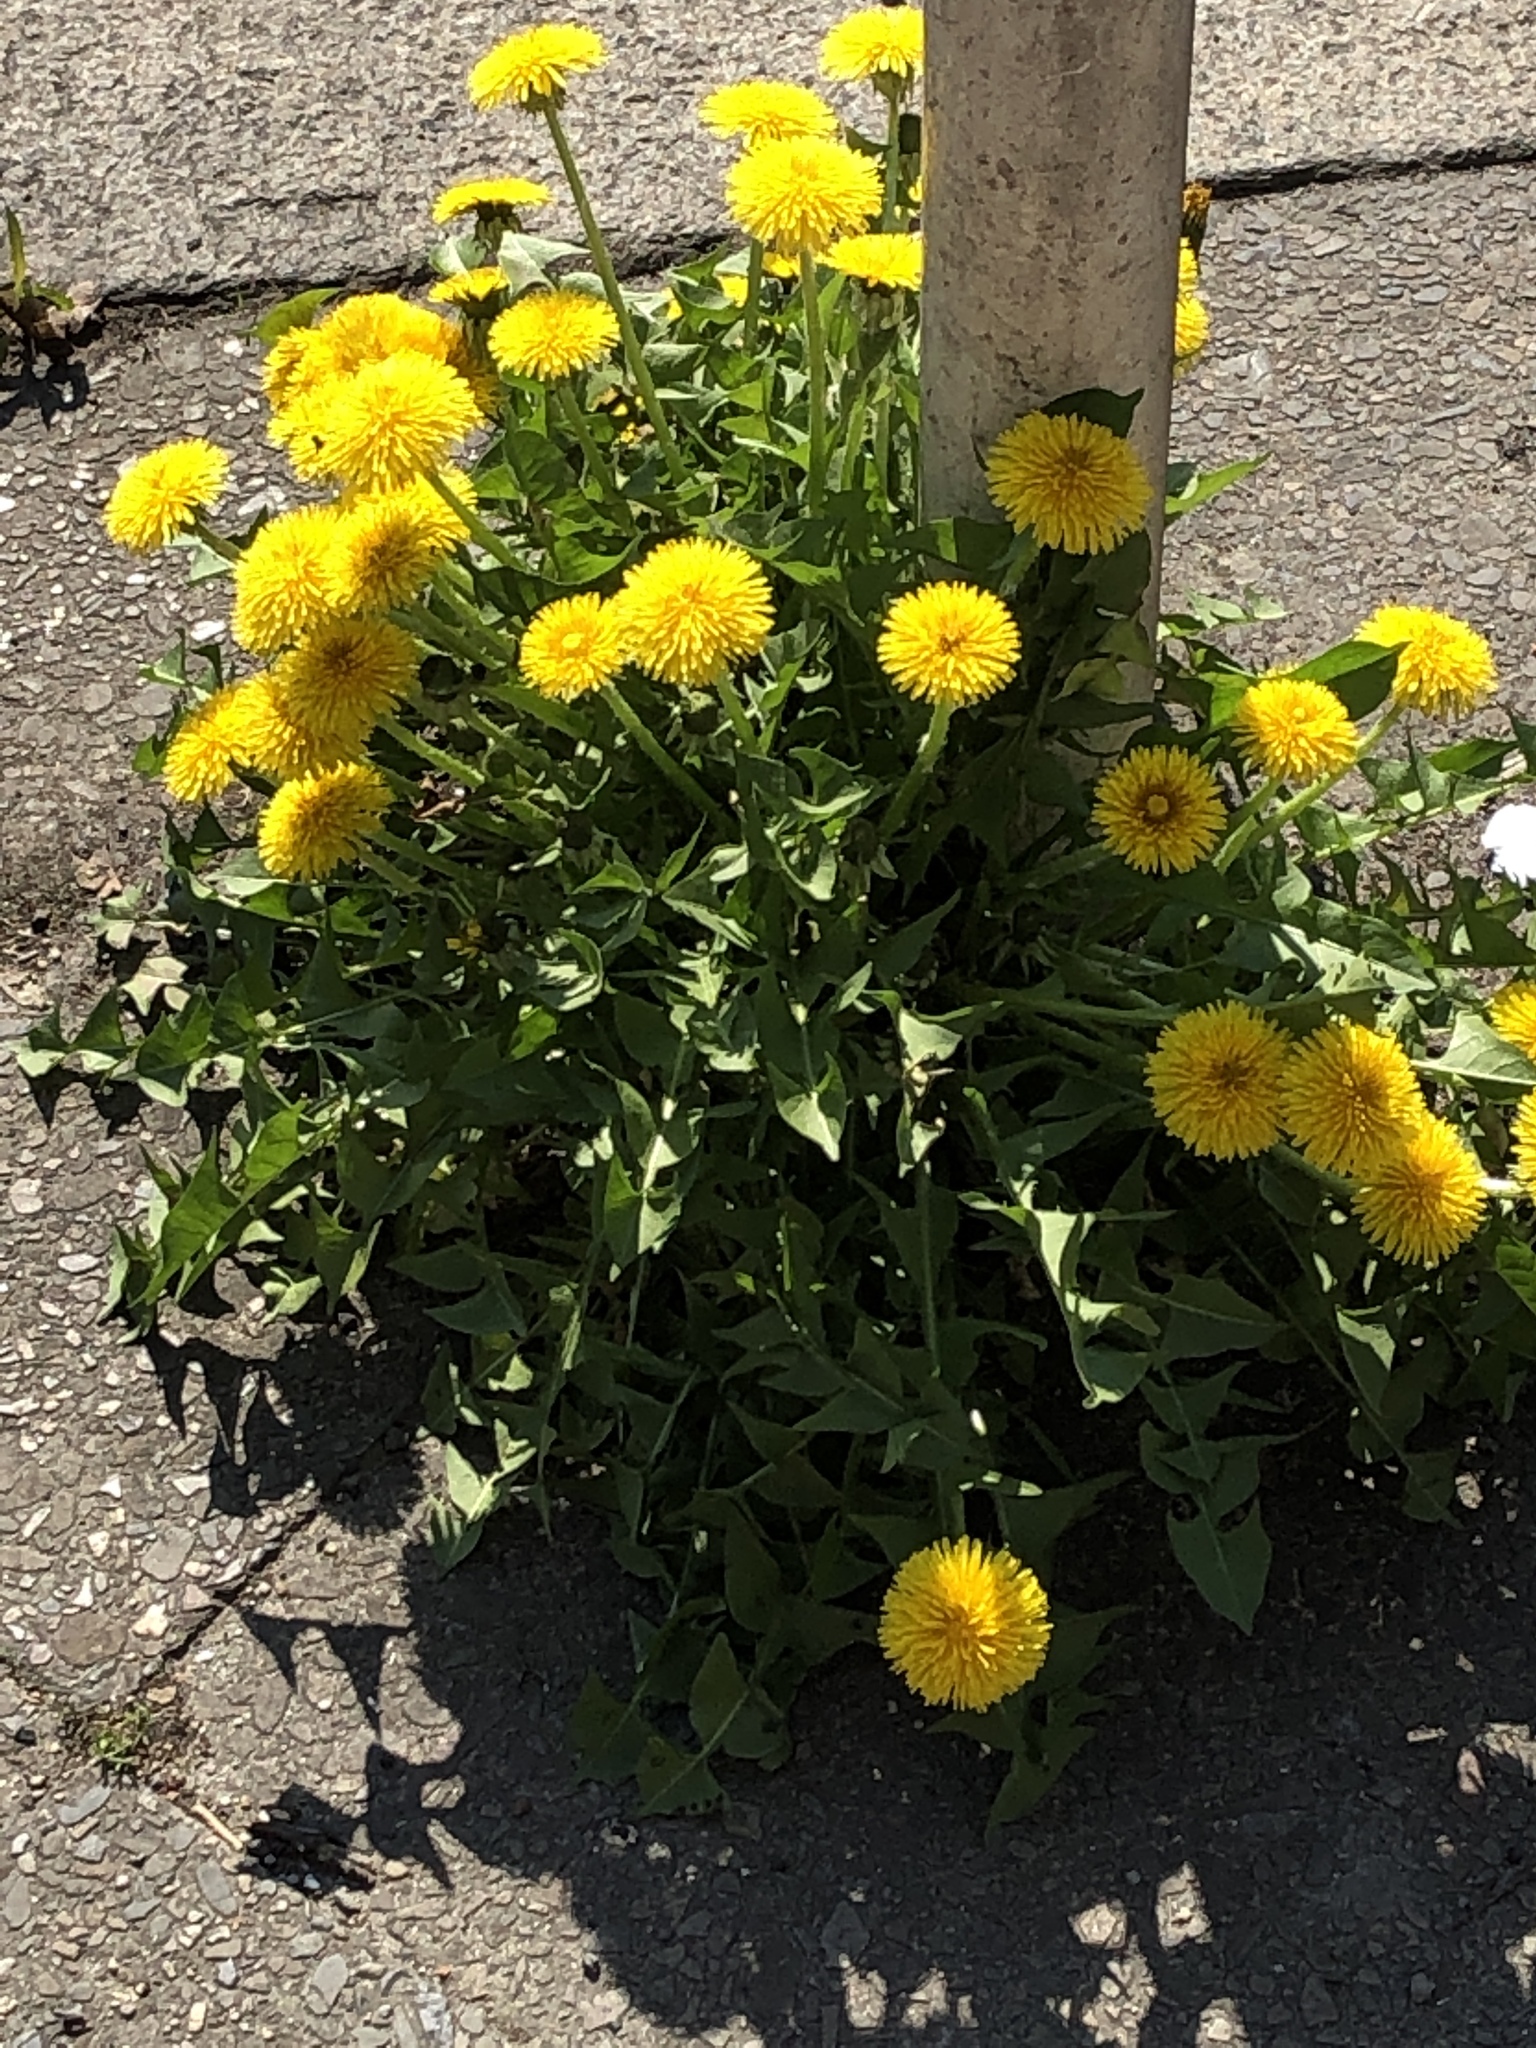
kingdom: Plantae
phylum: Tracheophyta
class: Magnoliopsida
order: Asterales
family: Asteraceae
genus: Taraxacum
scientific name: Taraxacum officinale
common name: Common dandelion
